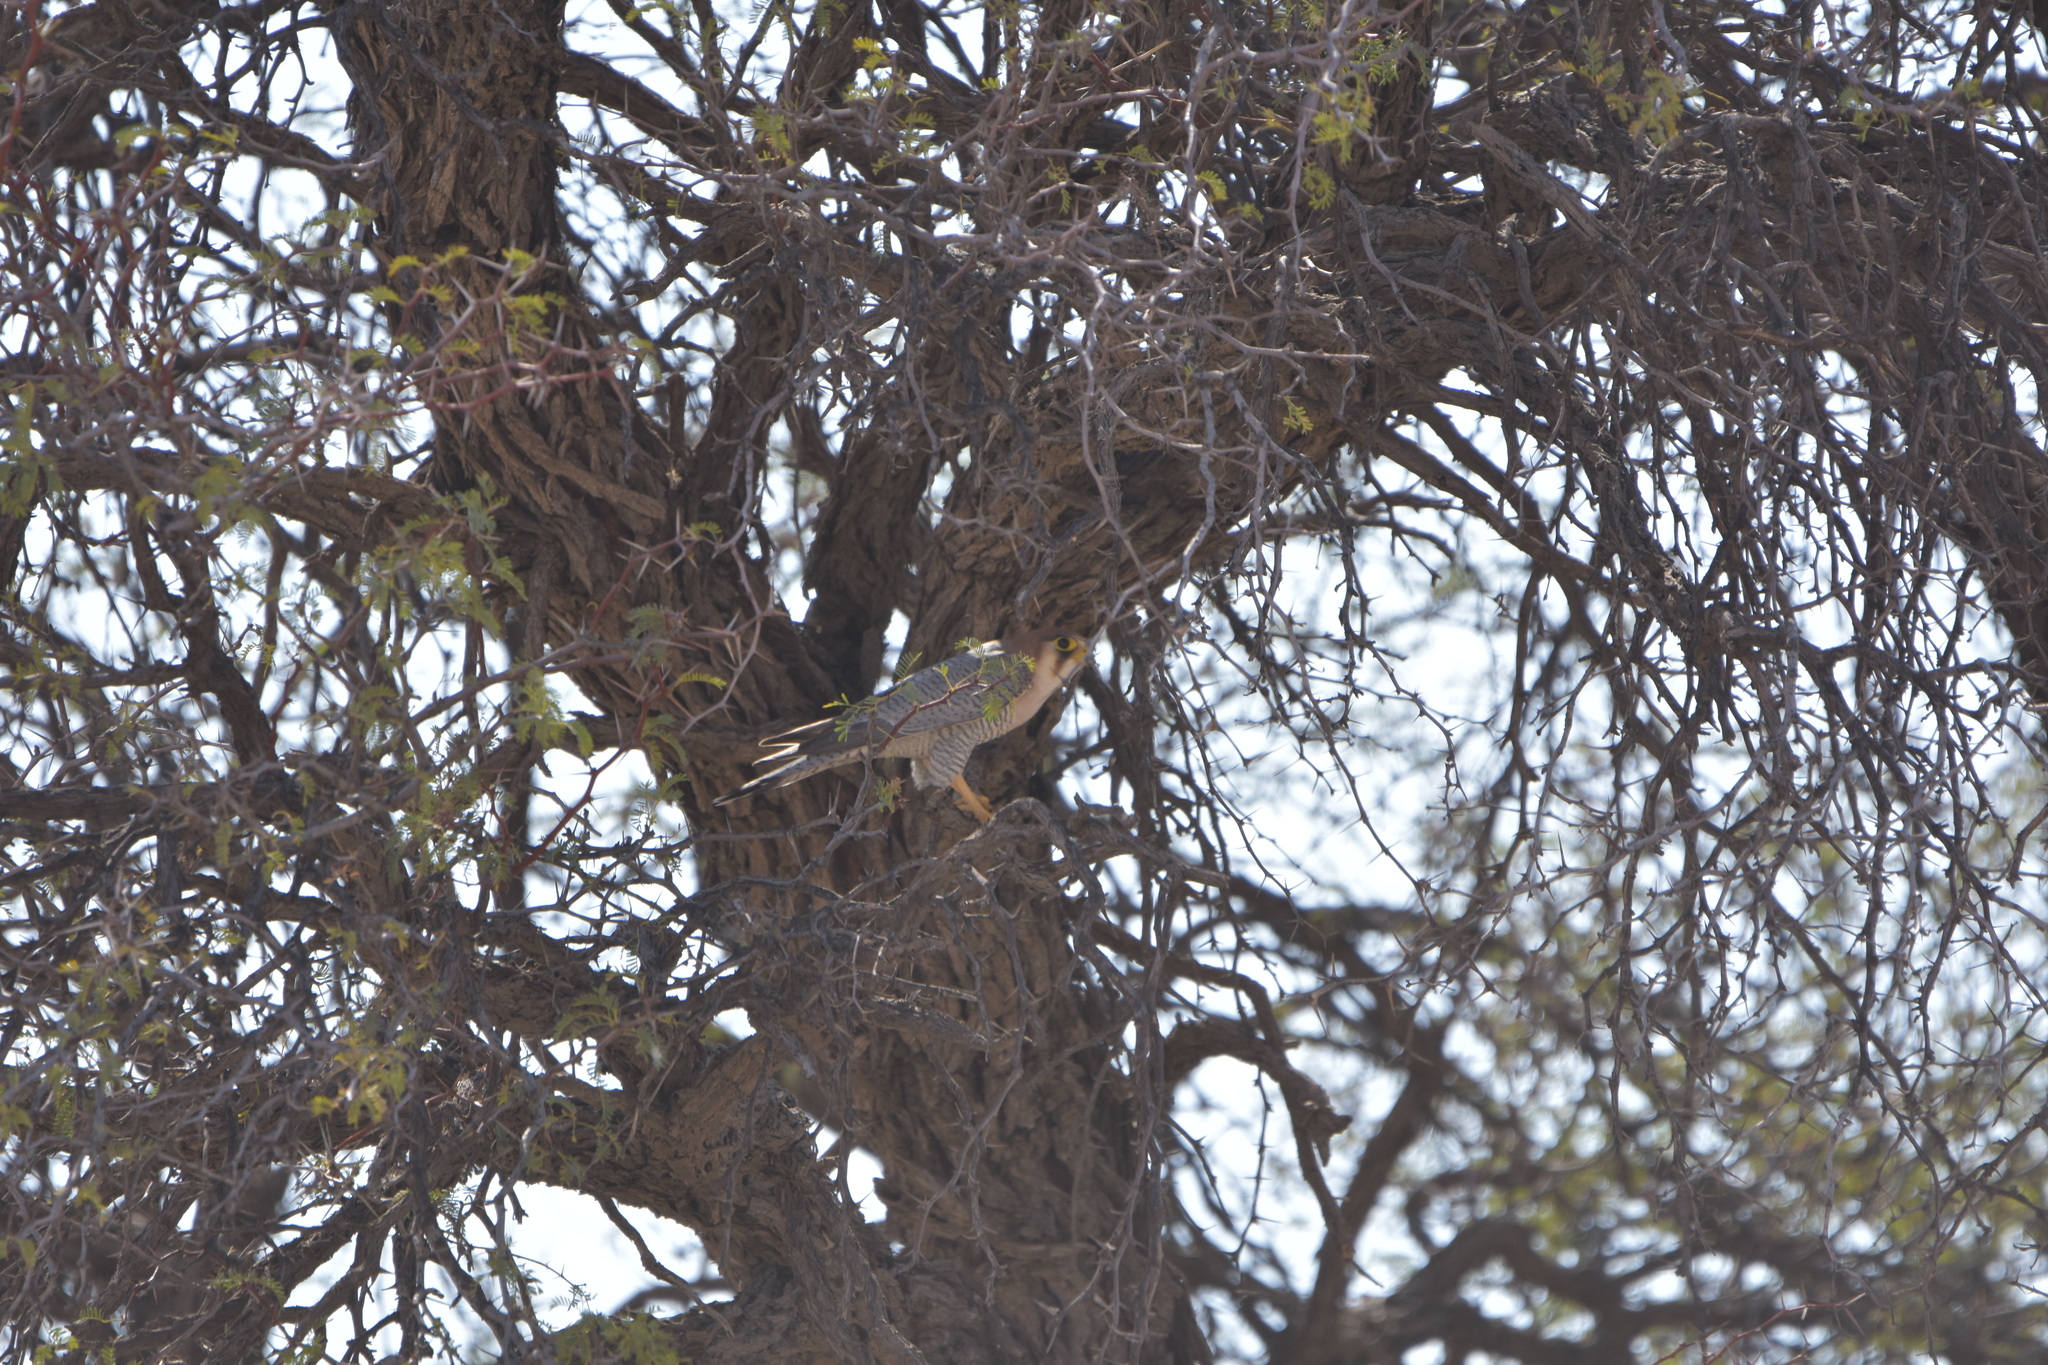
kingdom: Animalia
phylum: Chordata
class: Aves
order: Falconiformes
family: Falconidae
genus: Falco
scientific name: Falco chicquera
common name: Red-necked falcon
